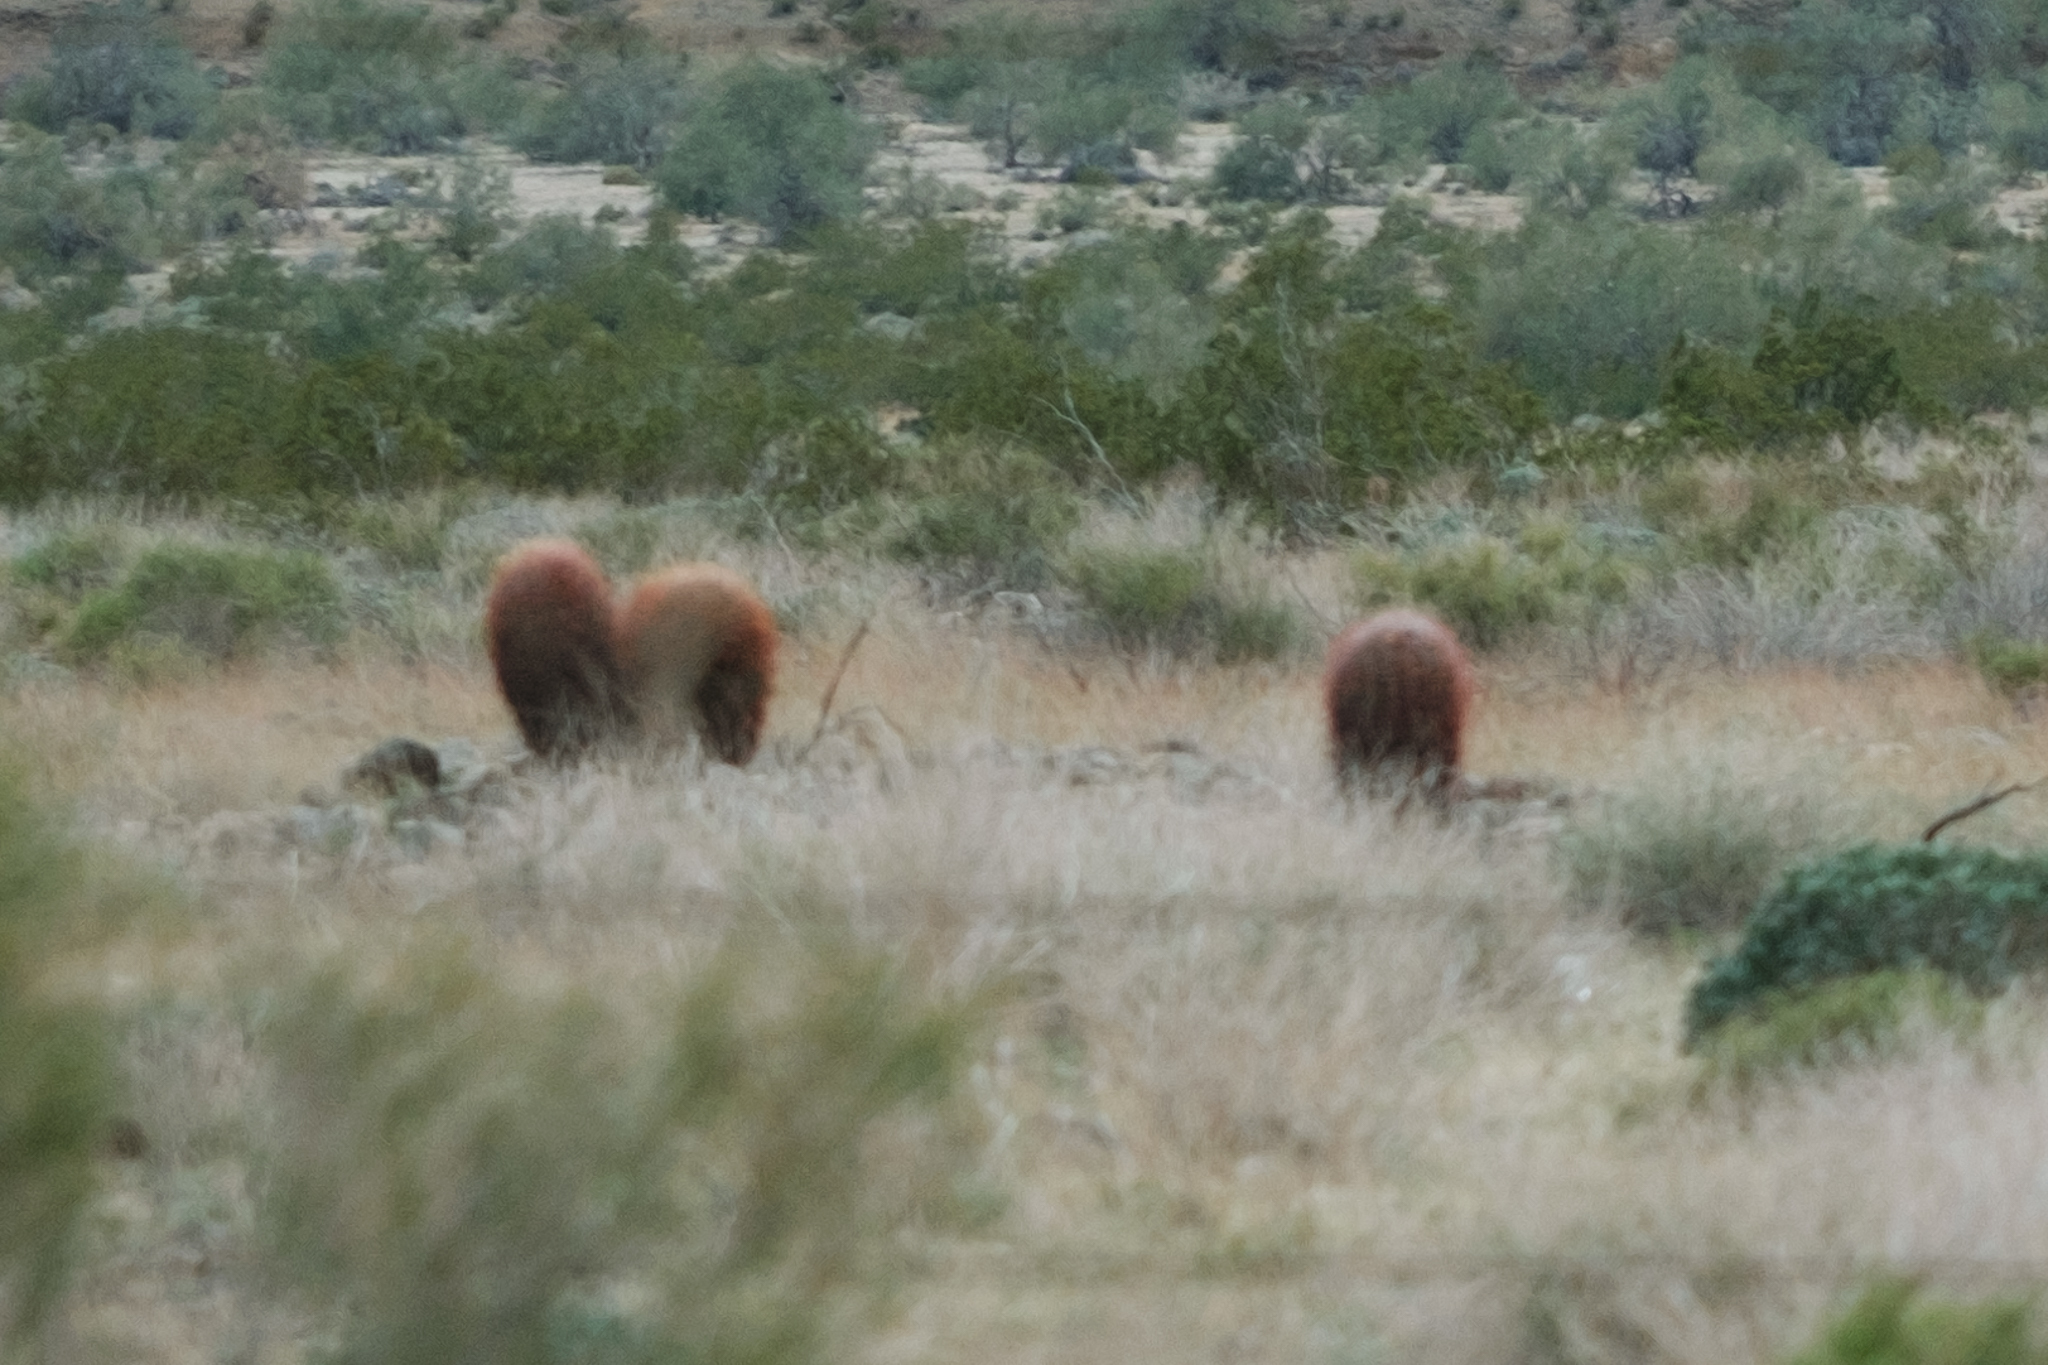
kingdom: Plantae
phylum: Tracheophyta
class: Magnoliopsida
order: Caryophyllales
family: Cactaceae
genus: Ferocactus
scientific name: Ferocactus cylindraceus
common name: California barrel cactus
